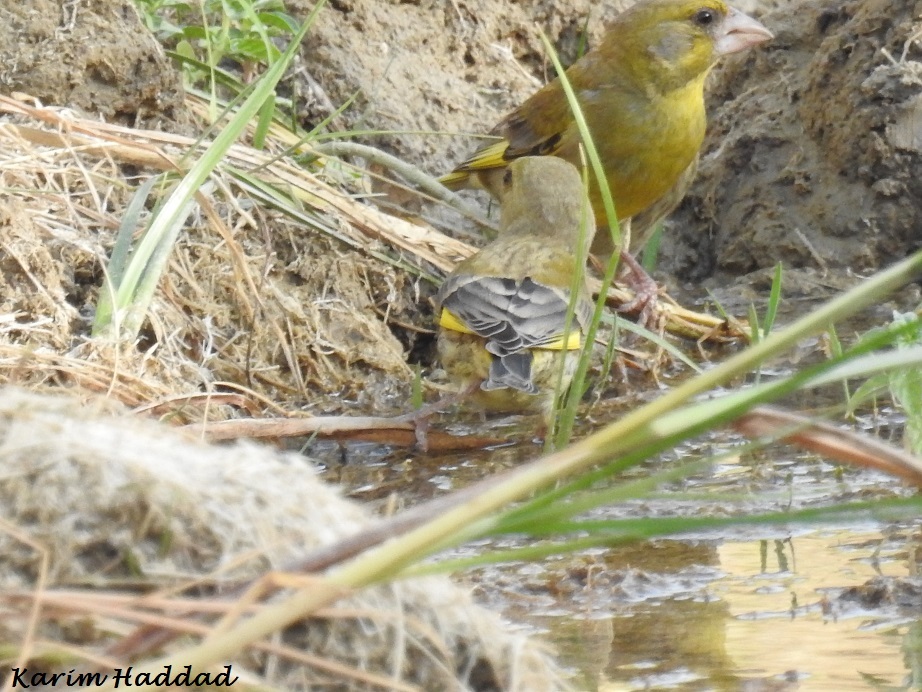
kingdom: Plantae
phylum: Tracheophyta
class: Liliopsida
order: Poales
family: Poaceae
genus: Chloris
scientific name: Chloris chloris
